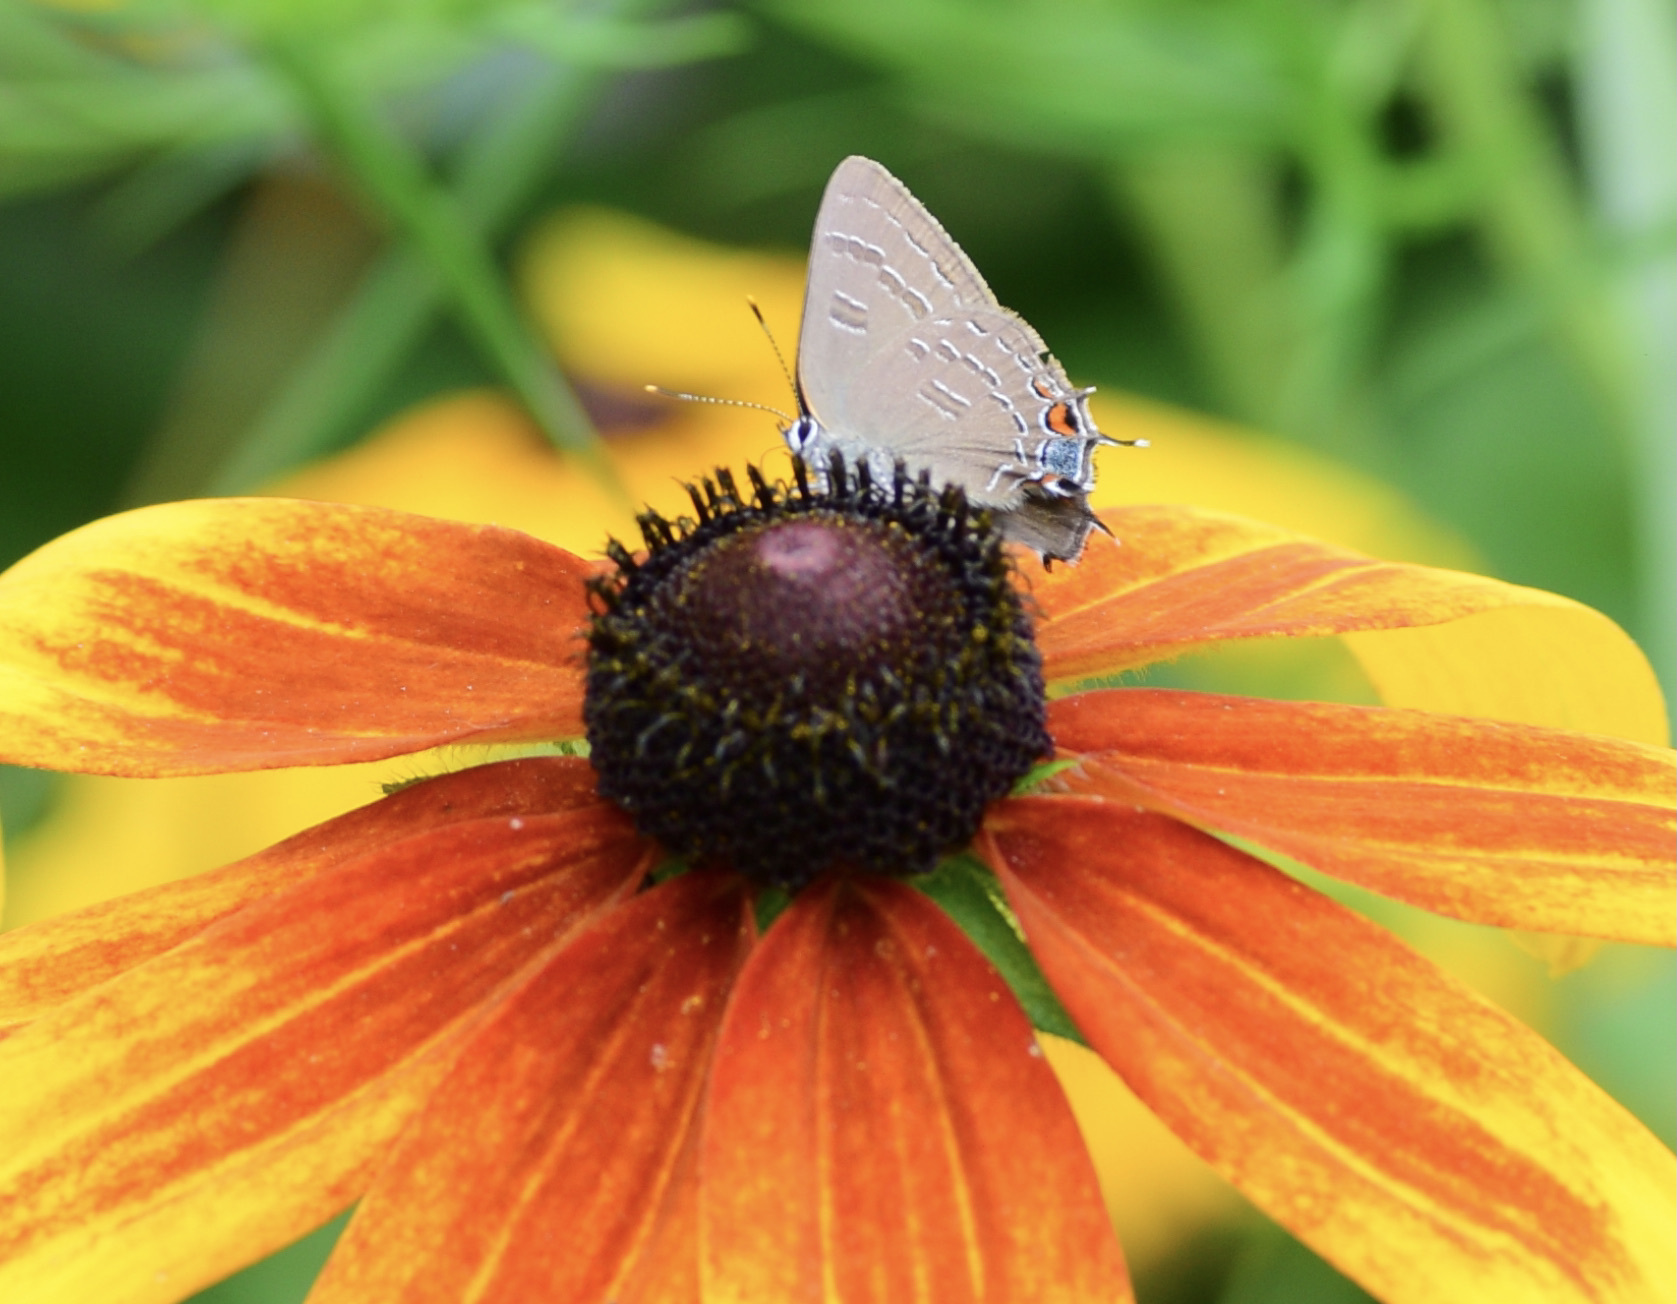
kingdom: Animalia
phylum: Arthropoda
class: Insecta
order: Lepidoptera
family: Lycaenidae
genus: Satyrium
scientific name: Satyrium calanus
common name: Banded hairstreak
